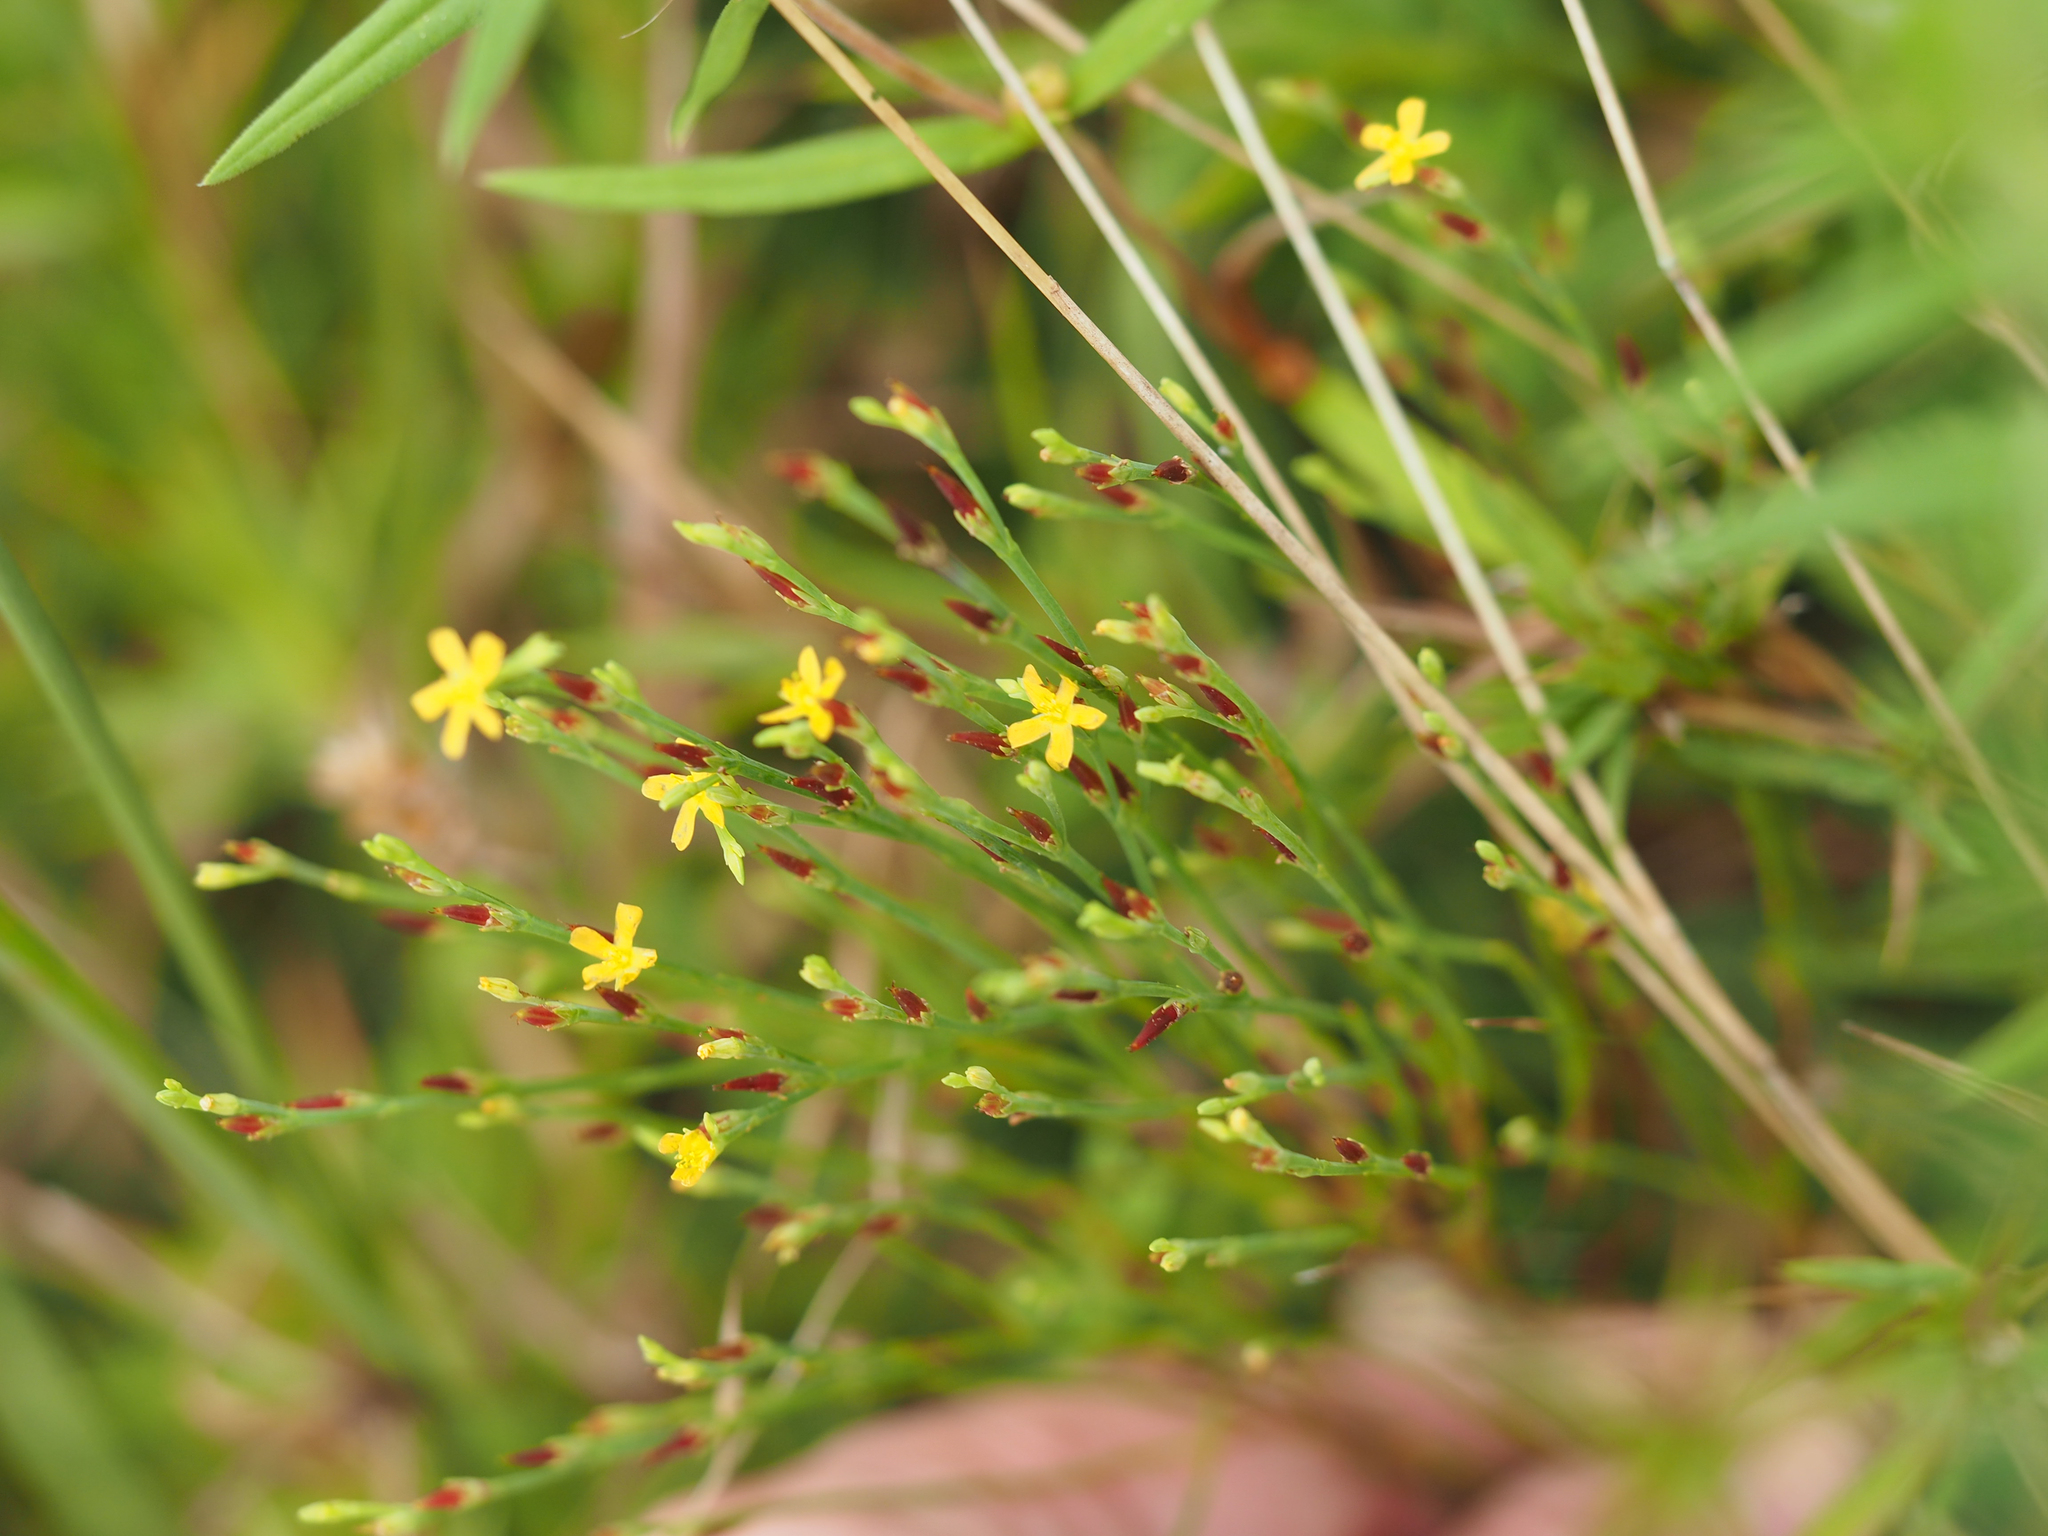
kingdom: Plantae
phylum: Tracheophyta
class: Magnoliopsida
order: Malpighiales
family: Hypericaceae
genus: Hypericum
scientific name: Hypericum gentianoides
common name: Gentian-leaved st. john's-wort
